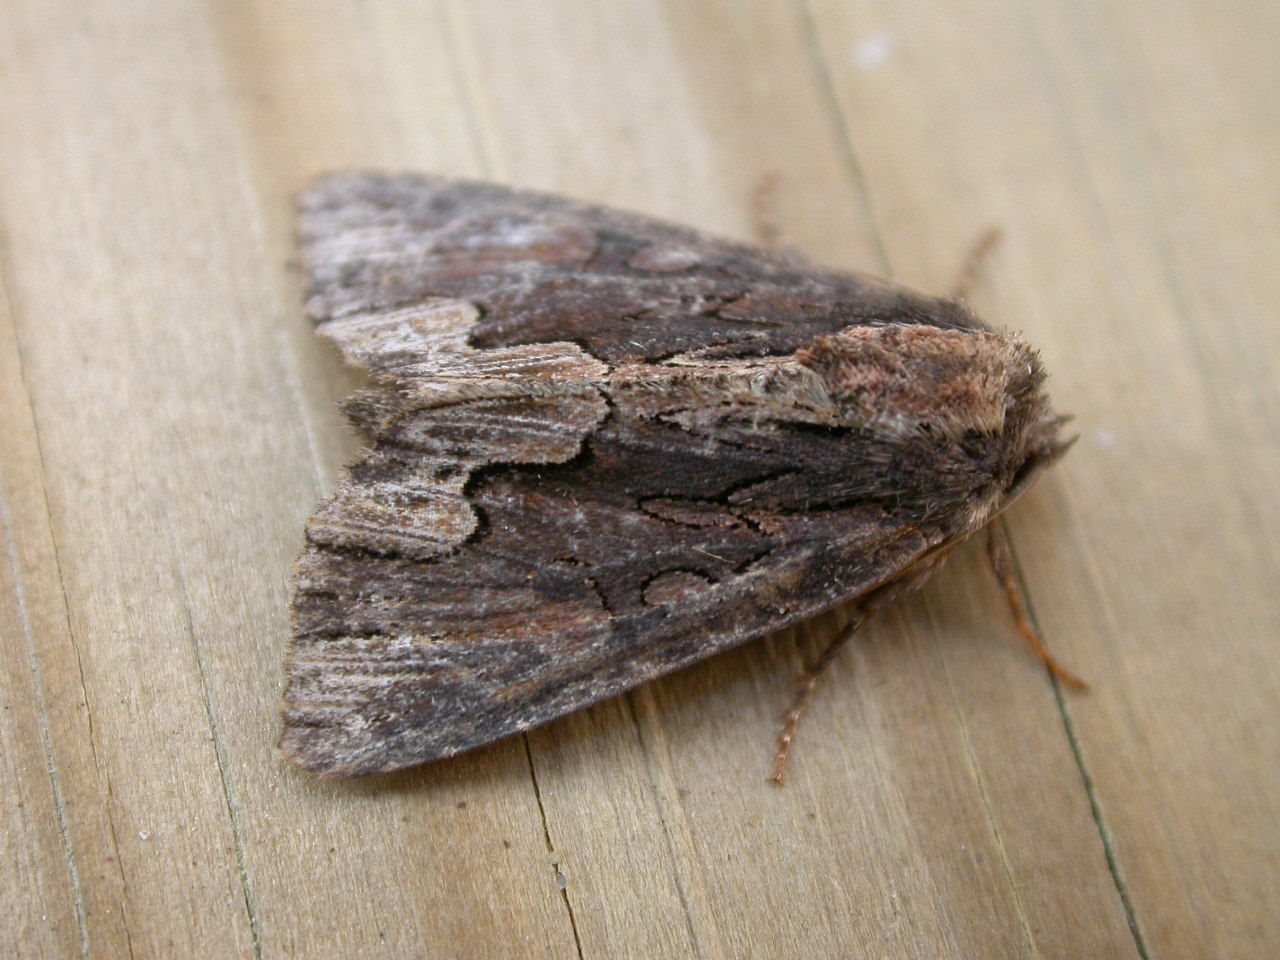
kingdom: Animalia
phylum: Arthropoda
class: Insecta
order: Lepidoptera
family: Noctuidae
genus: Dypterygia
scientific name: Dypterygia scabriuscula
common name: Bird's wing
